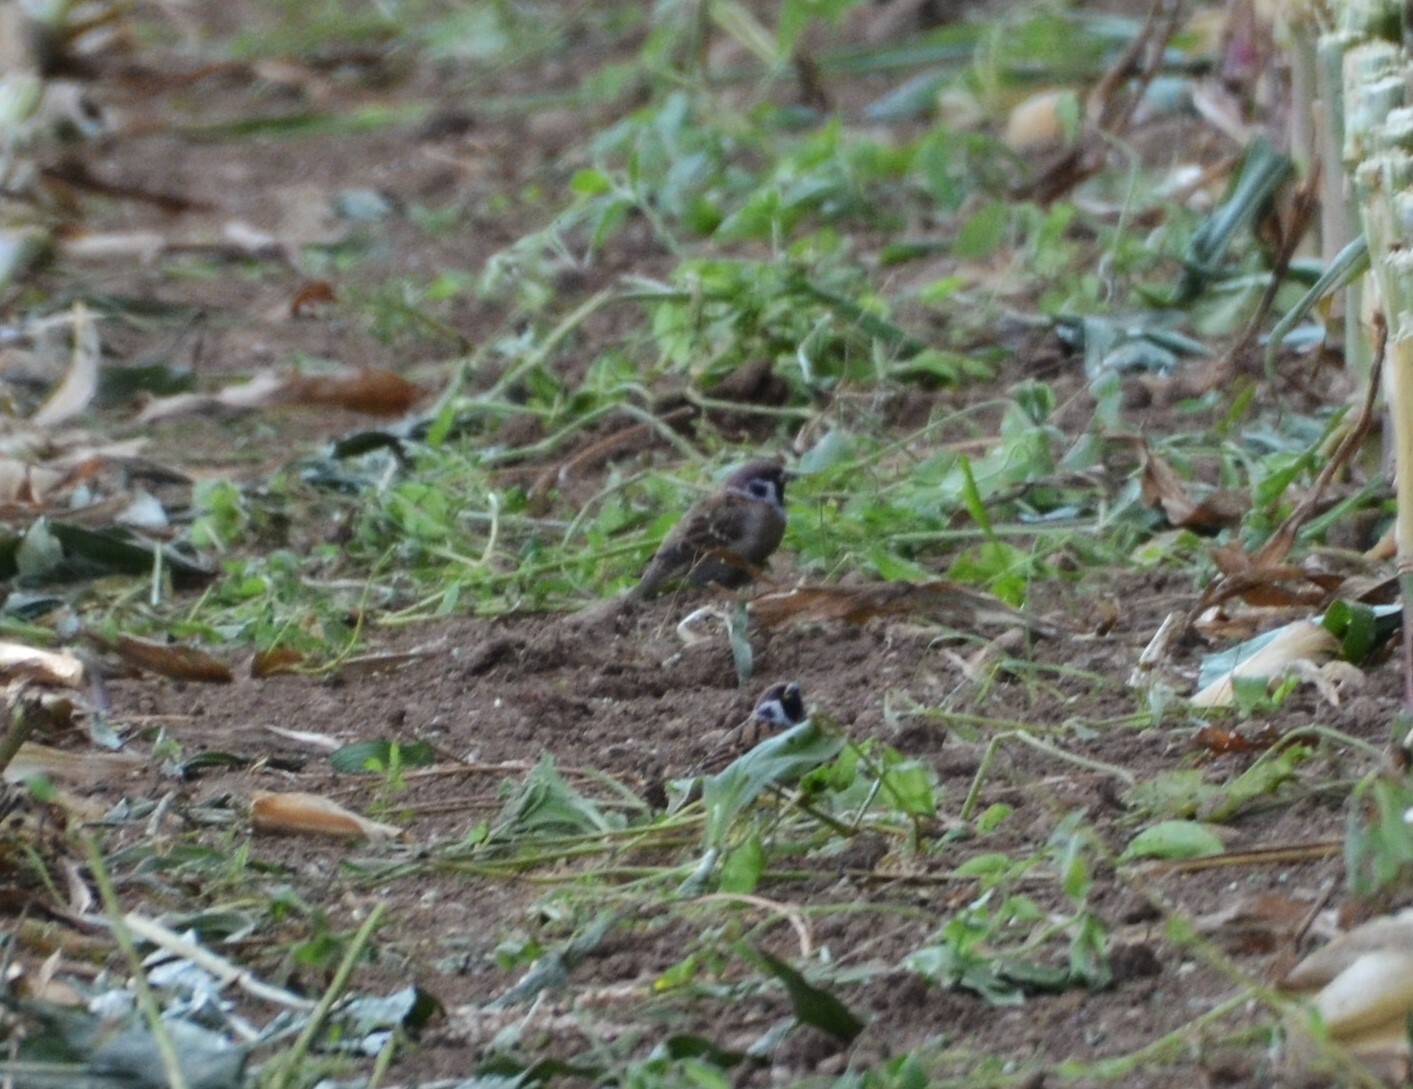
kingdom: Animalia
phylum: Chordata
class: Aves
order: Passeriformes
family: Passeridae
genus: Passer
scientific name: Passer montanus
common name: Eurasian tree sparrow
